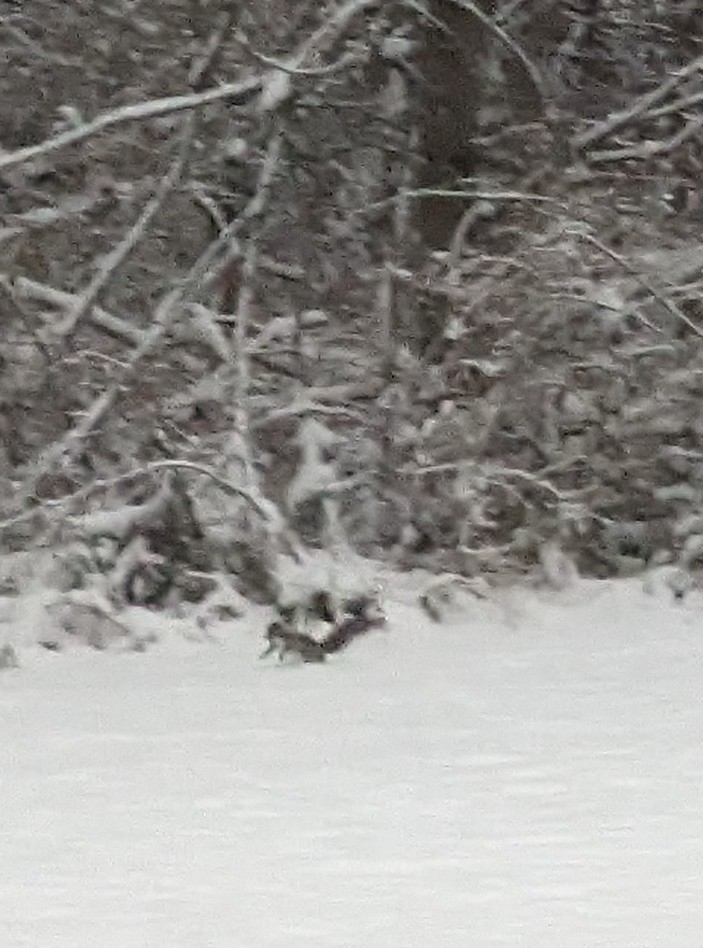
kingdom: Animalia
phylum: Chordata
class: Mammalia
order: Rodentia
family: Sciuridae
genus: Sciurus
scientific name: Sciurus carolinensis
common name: Eastern gray squirrel
